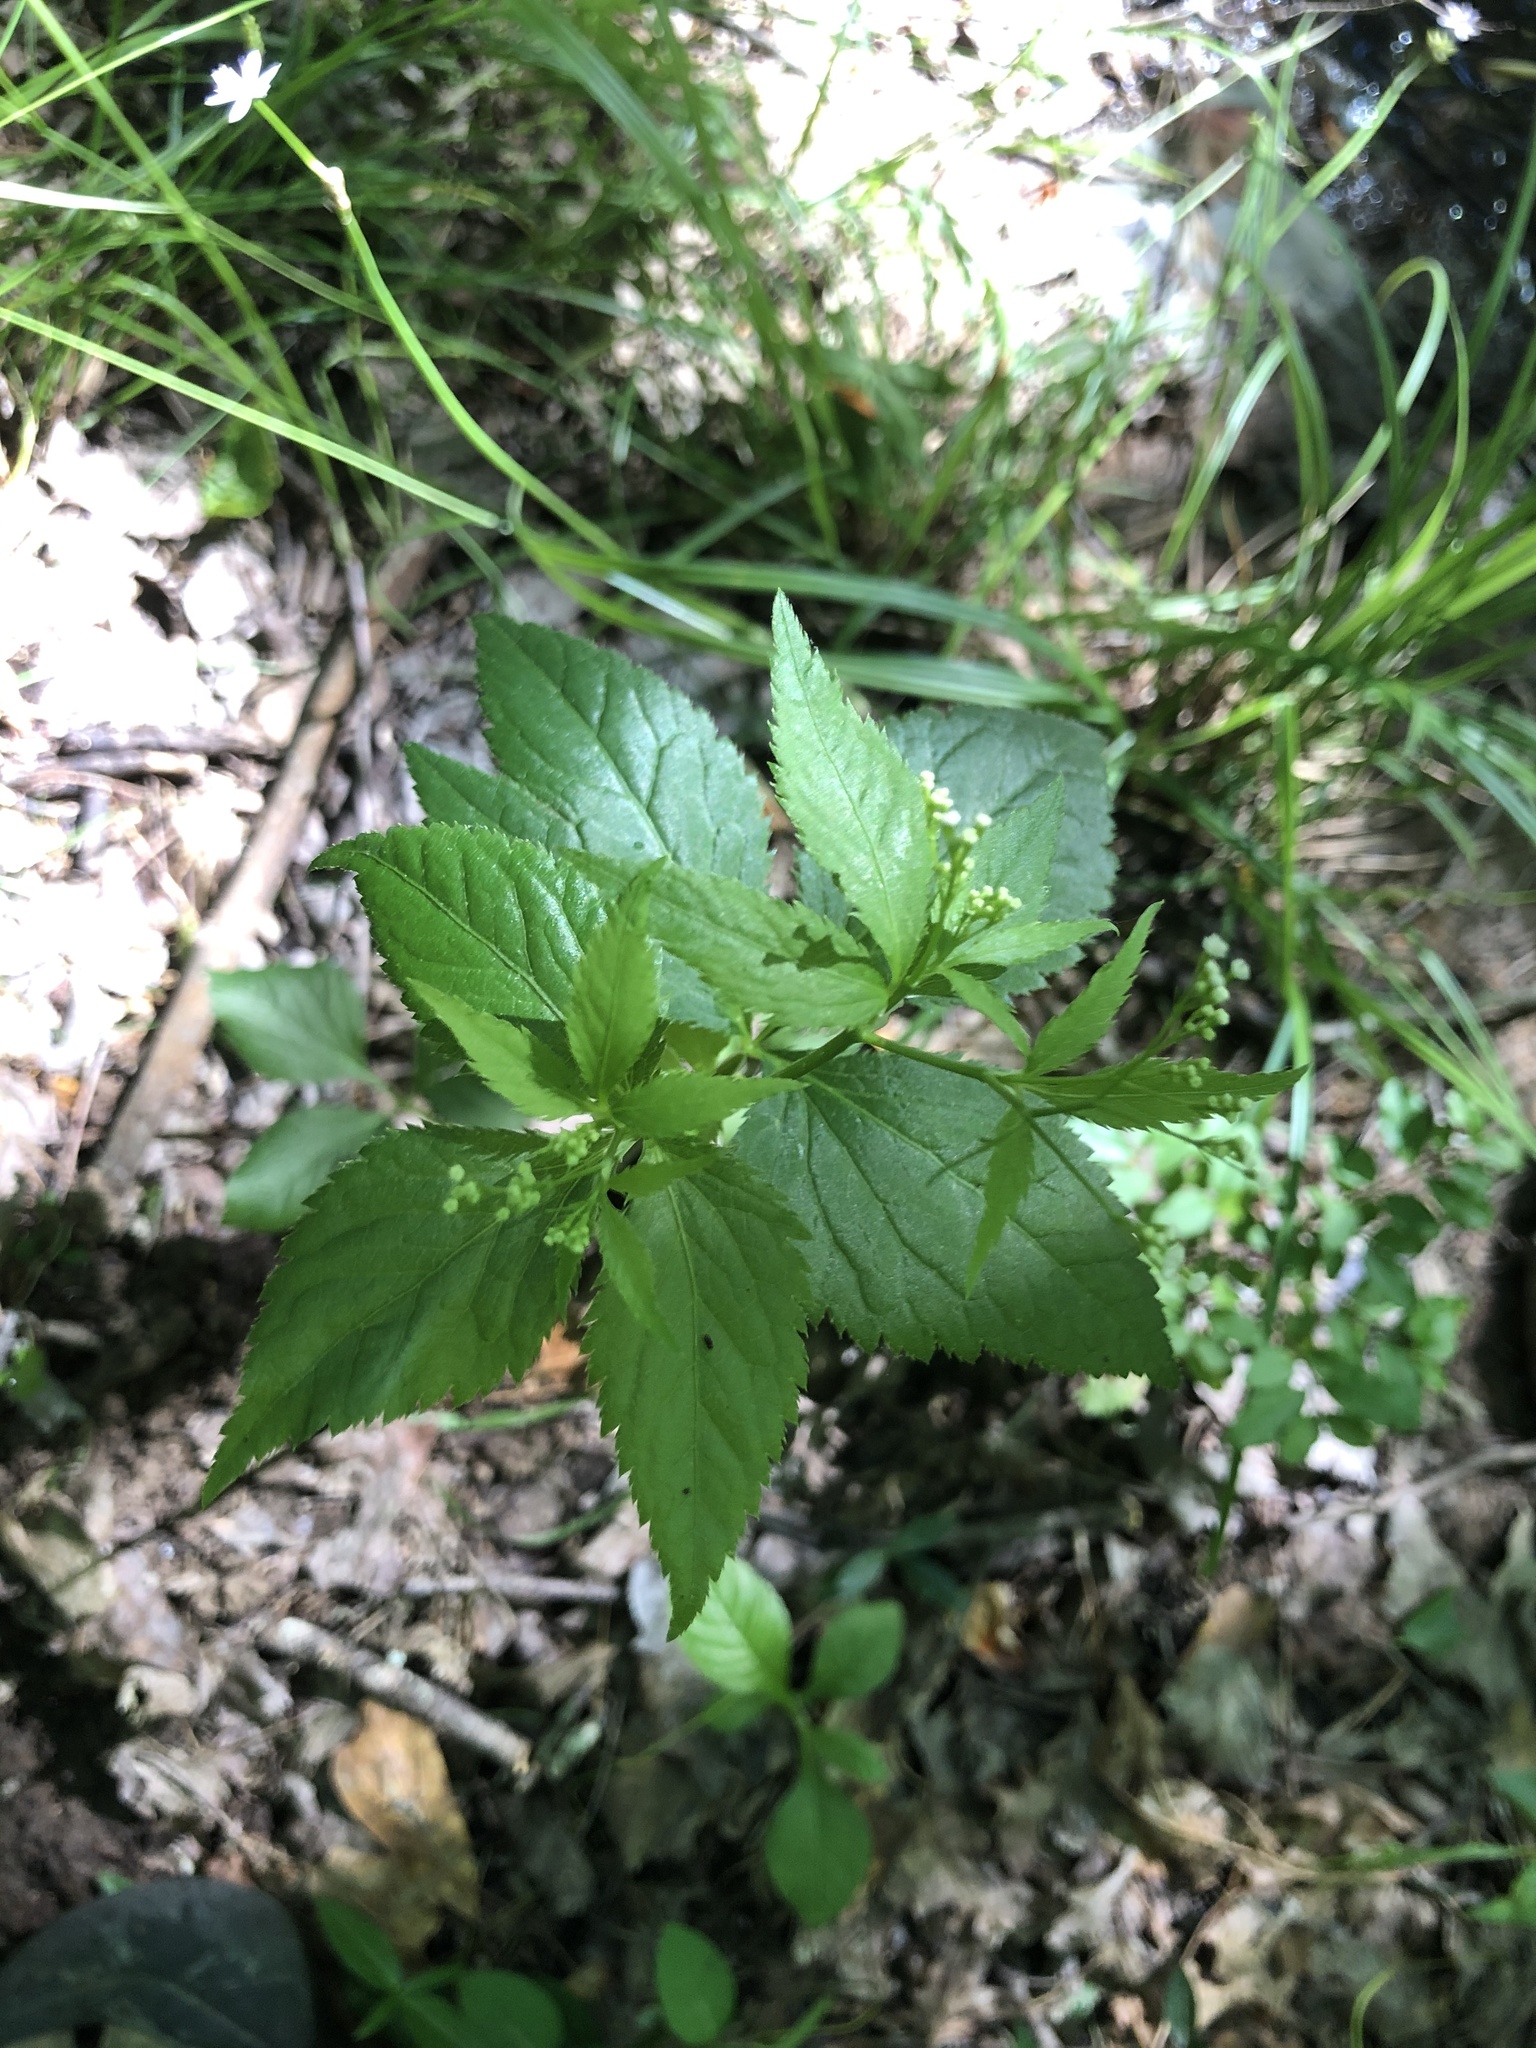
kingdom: Plantae
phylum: Tracheophyta
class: Magnoliopsida
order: Apiales
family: Apiaceae
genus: Cryptotaenia
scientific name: Cryptotaenia canadensis
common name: Honewort
